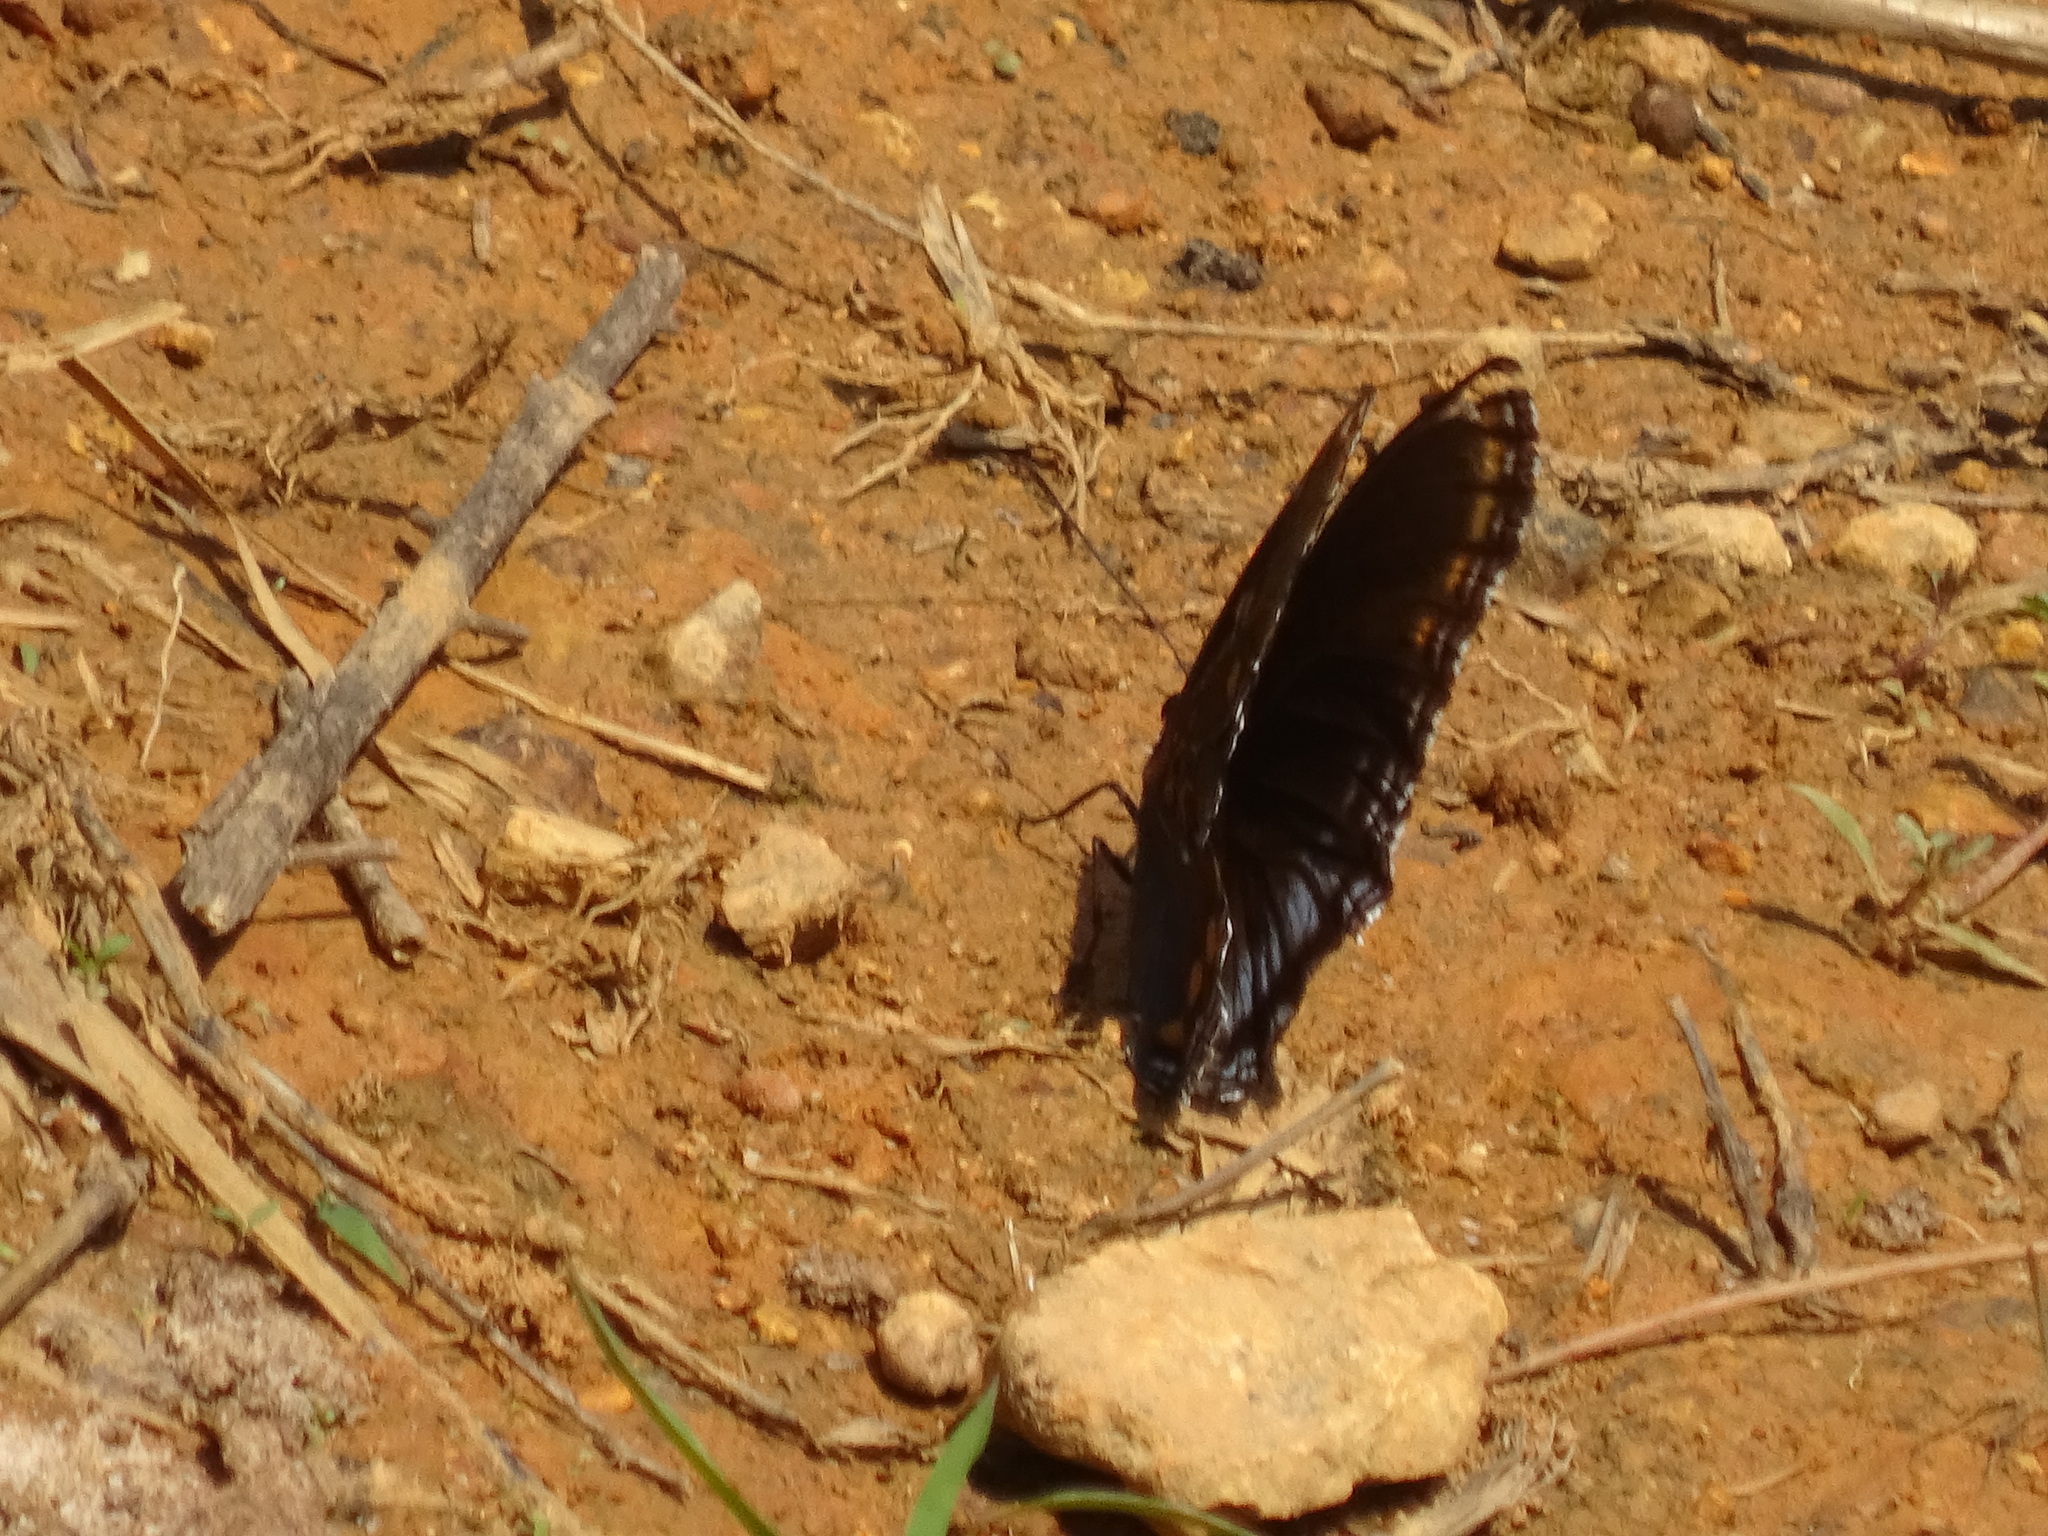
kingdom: Animalia
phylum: Arthropoda
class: Insecta
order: Lepidoptera
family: Nymphalidae
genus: Limenitis
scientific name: Limenitis astyanax
